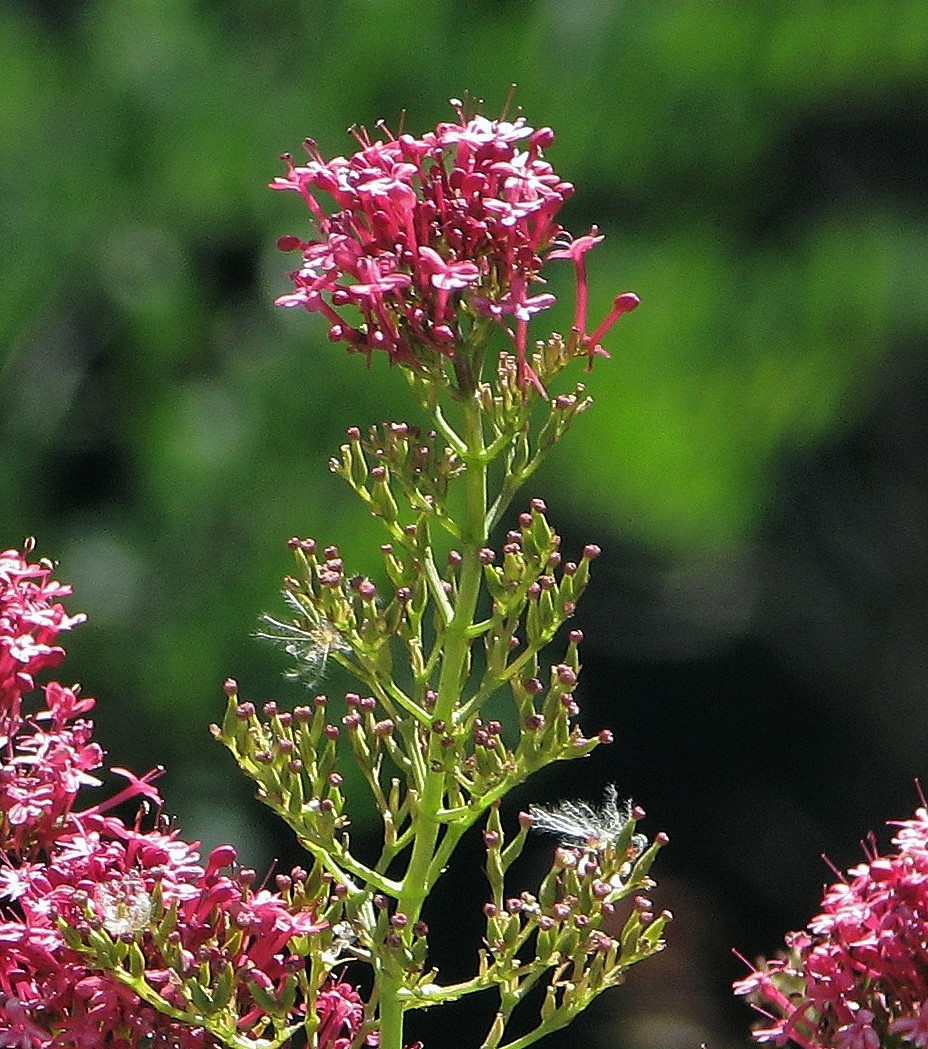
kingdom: Plantae
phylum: Tracheophyta
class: Magnoliopsida
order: Dipsacales
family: Caprifoliaceae
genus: Centranthus
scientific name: Centranthus ruber
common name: Red valerian
